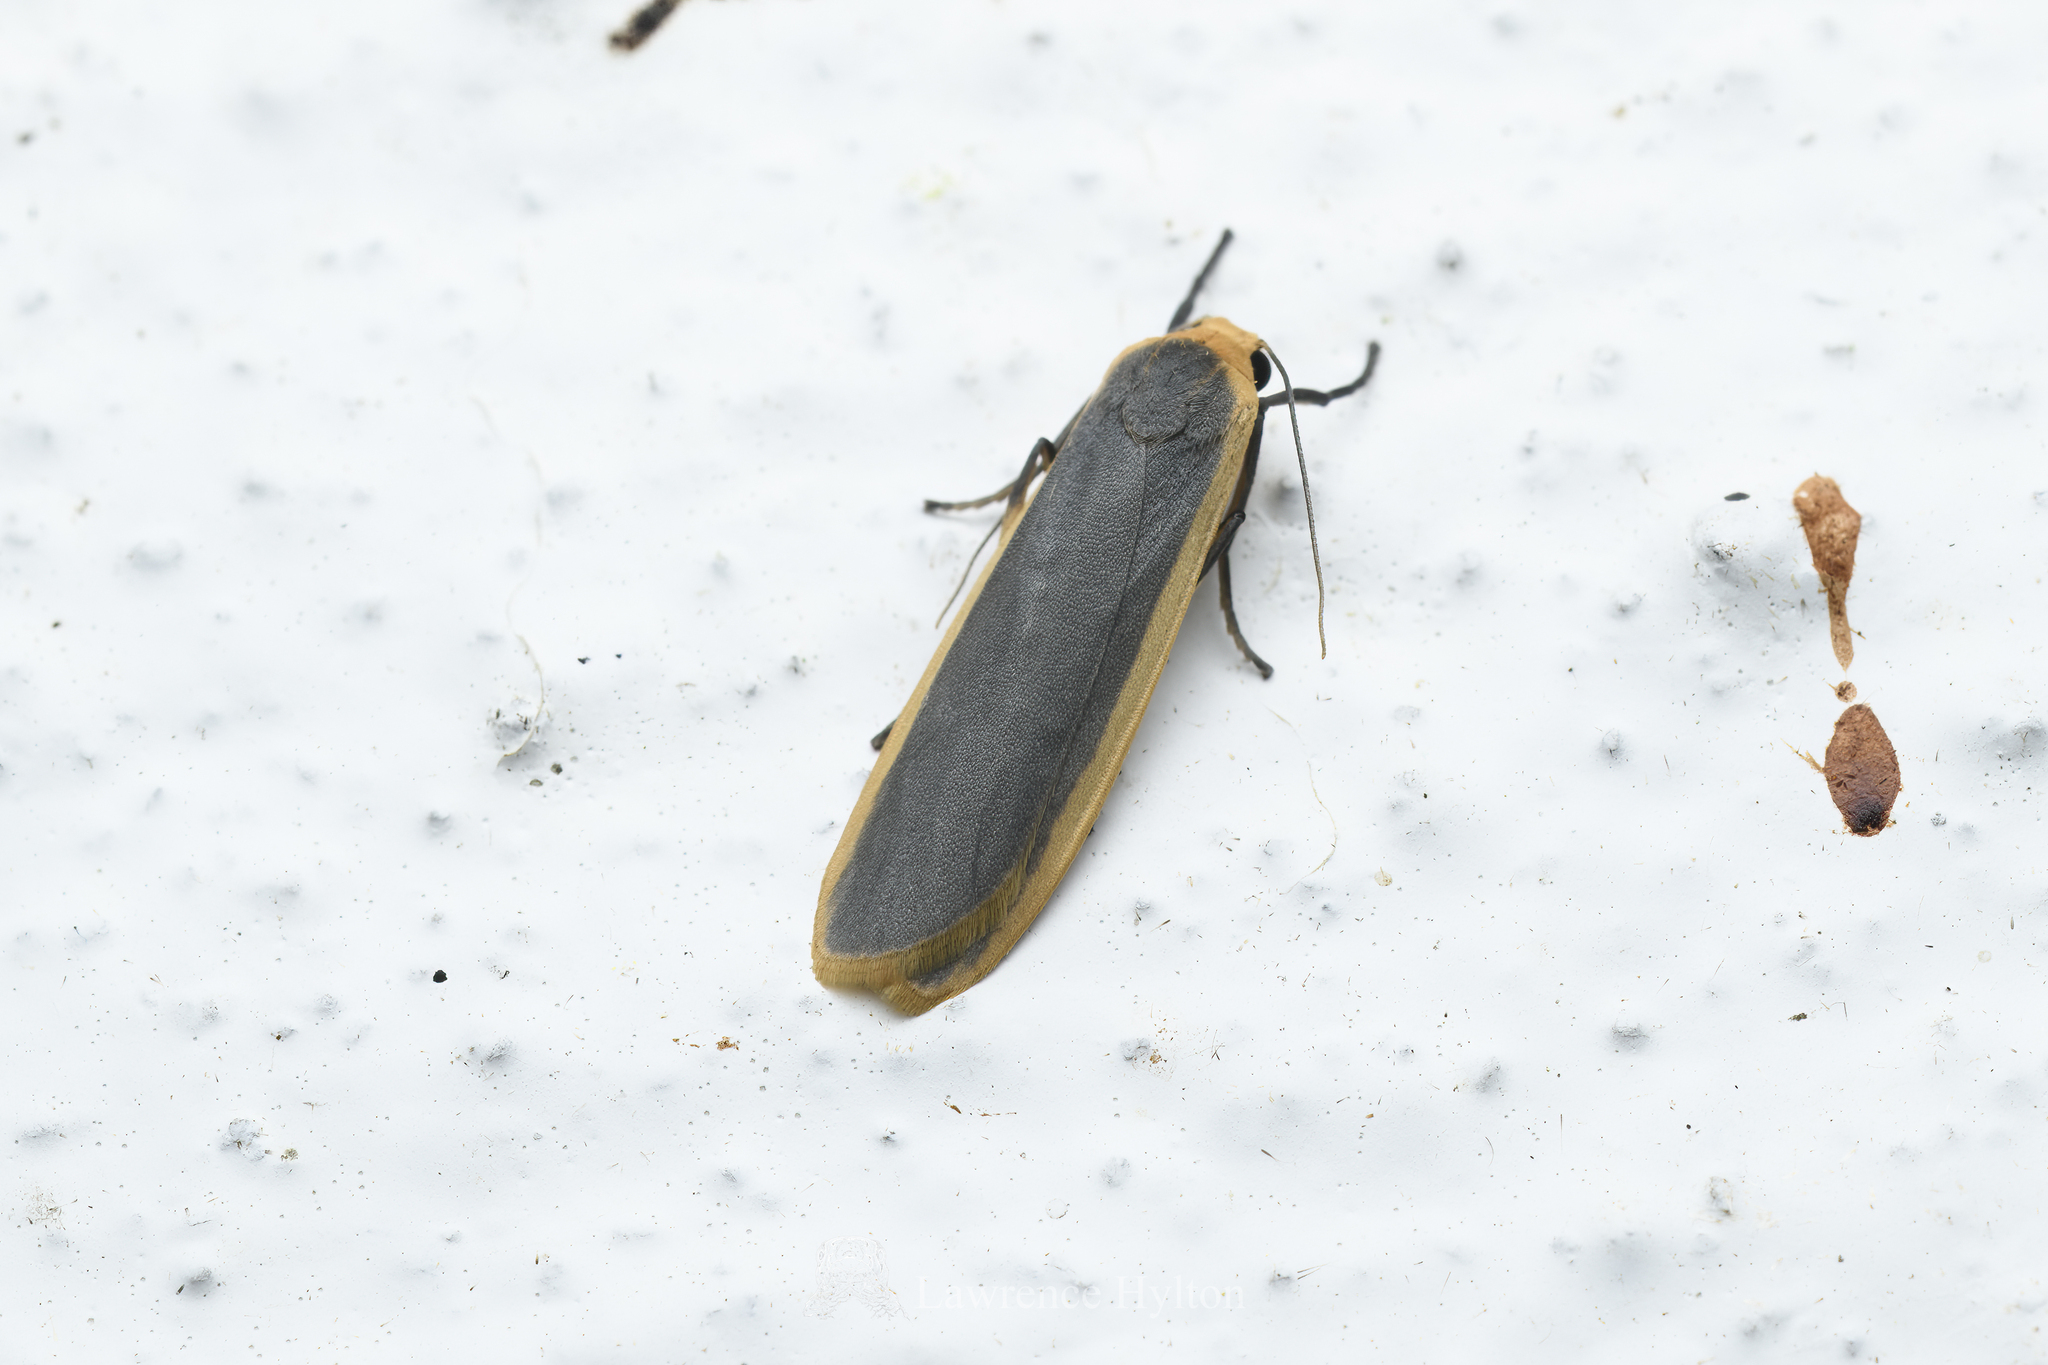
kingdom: Animalia
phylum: Arthropoda
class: Insecta
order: Lepidoptera
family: Erebidae
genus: Brunia
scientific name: Brunia antica
